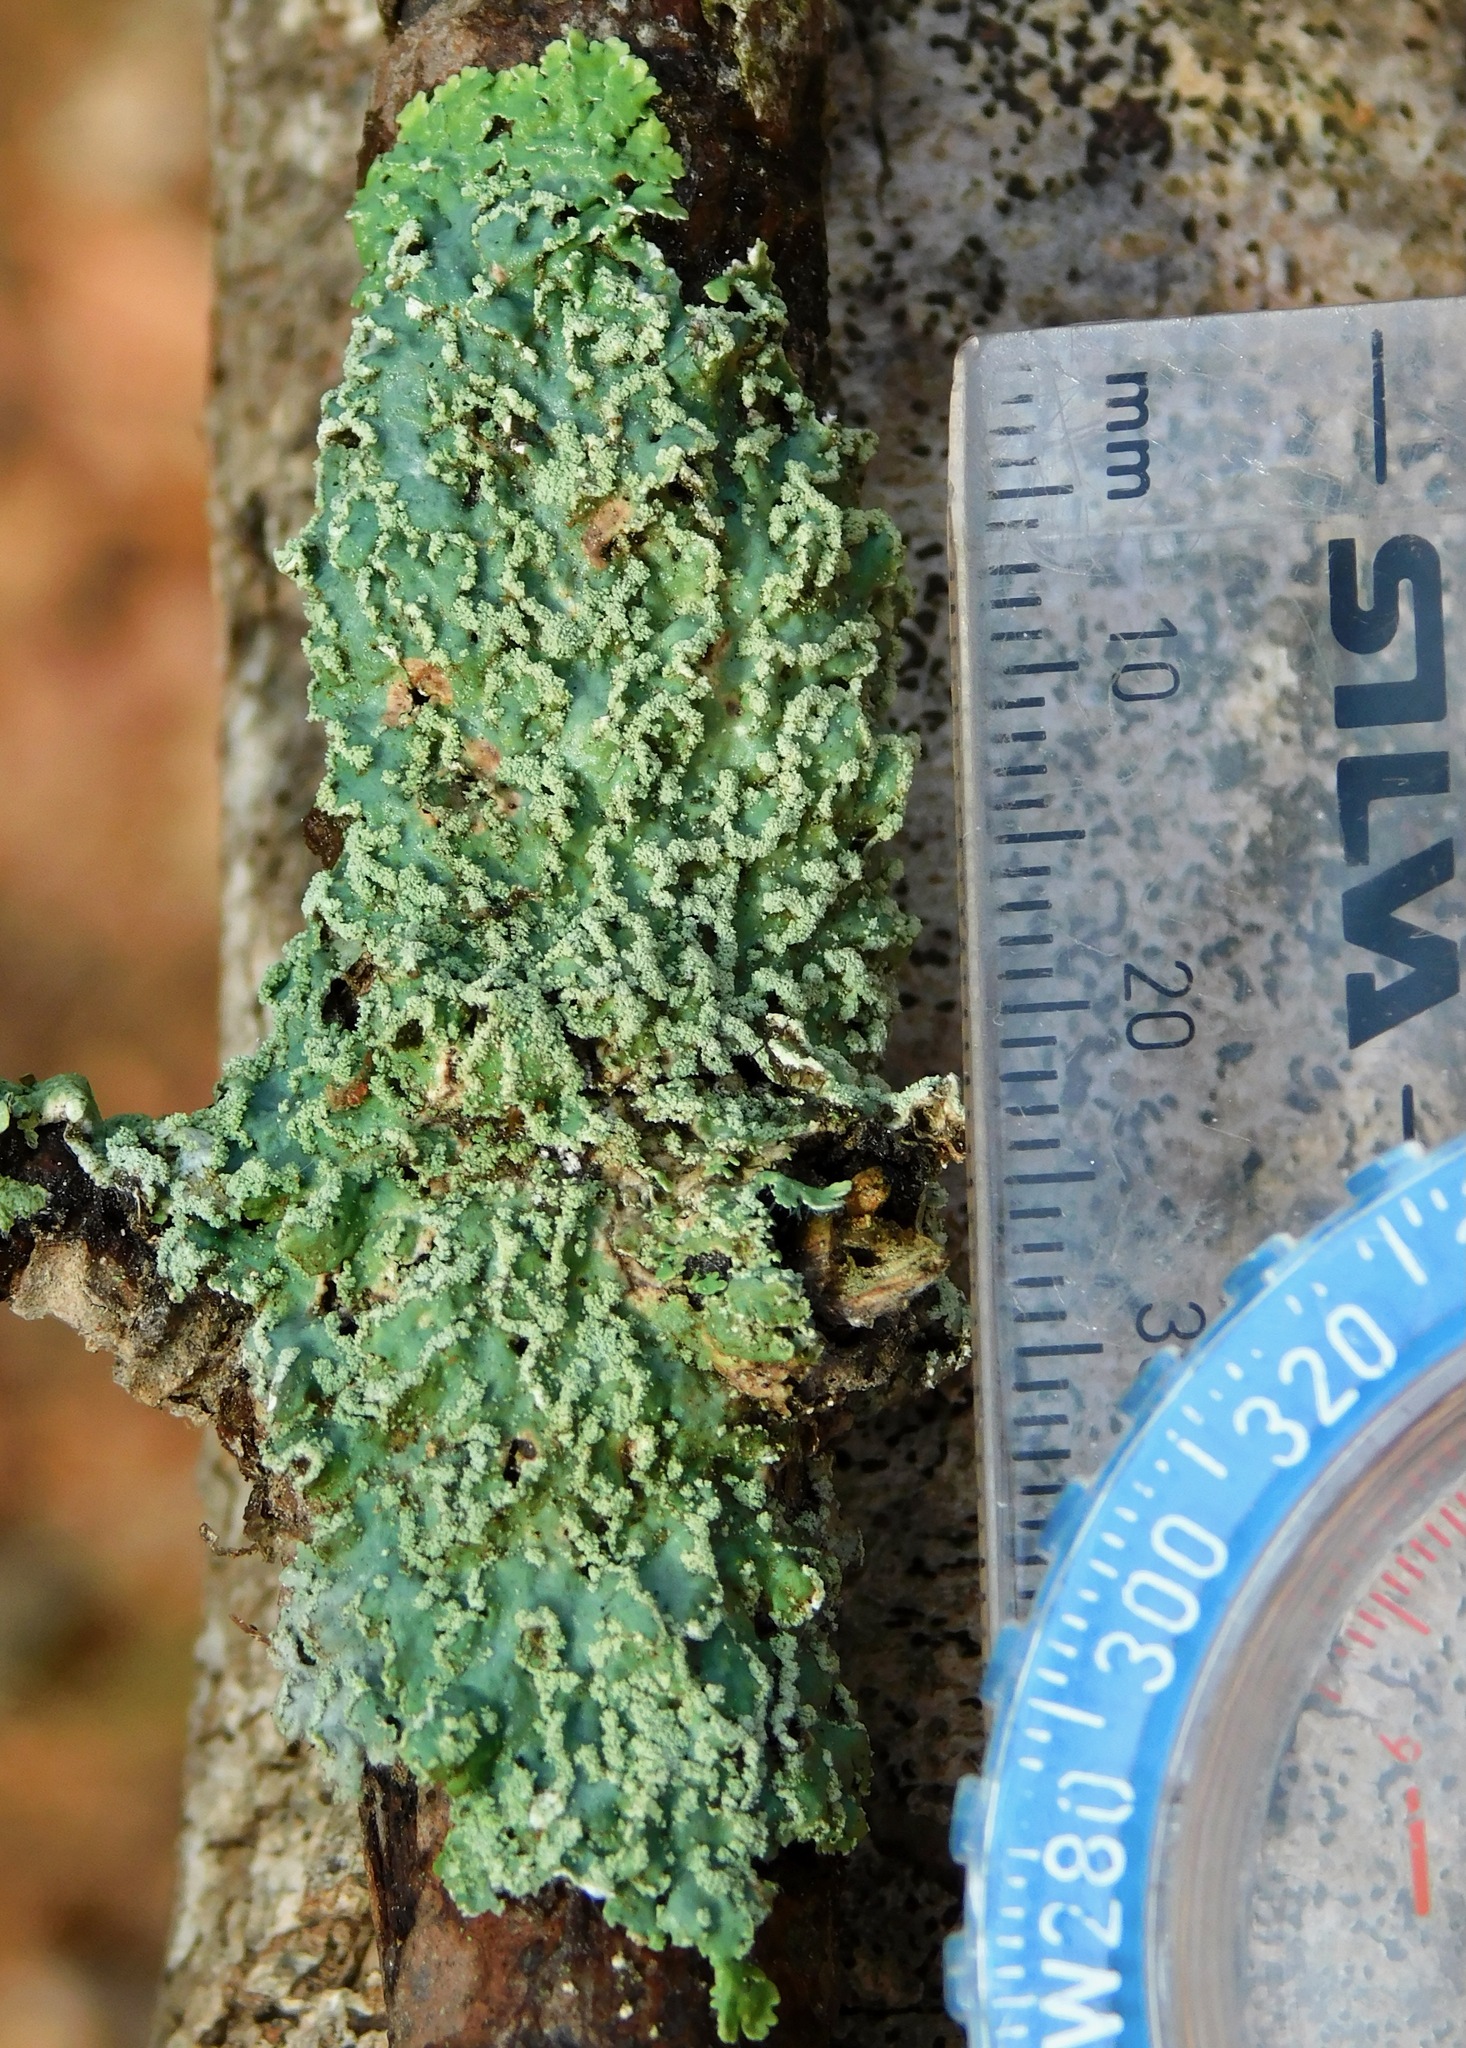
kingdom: Fungi
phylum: Ascomycota
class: Lecanoromycetes
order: Caliciales
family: Physciaceae
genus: Polyblastidium
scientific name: Polyblastidium albicans
